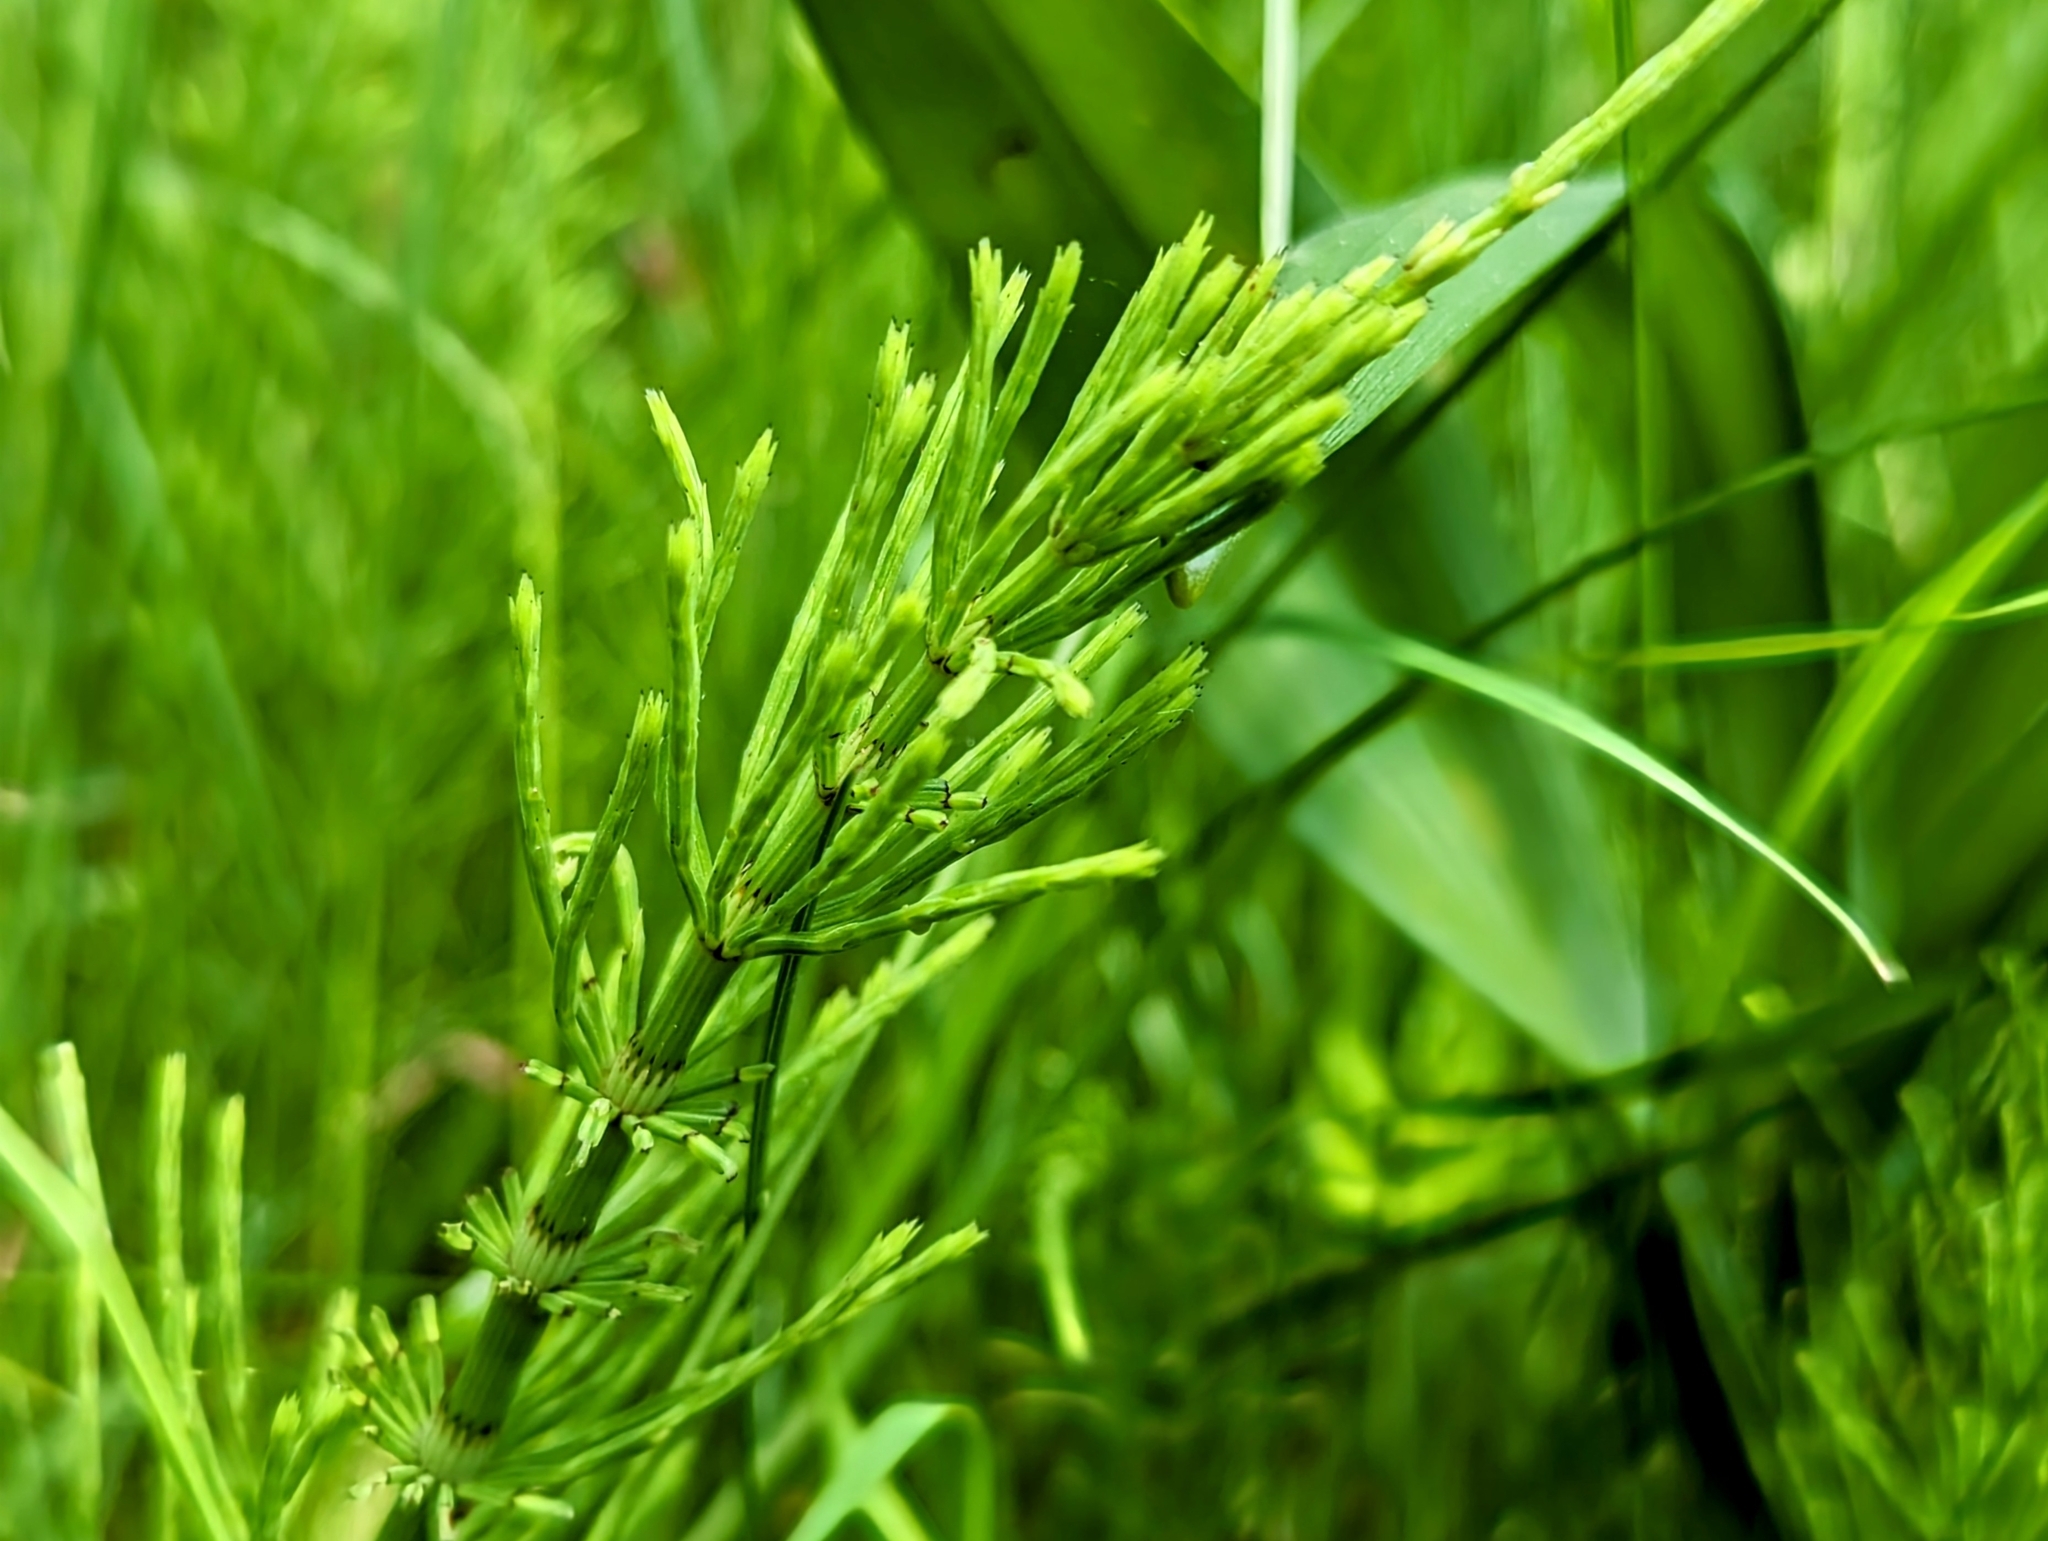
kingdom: Plantae
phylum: Tracheophyta
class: Polypodiopsida
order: Equisetales
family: Equisetaceae
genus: Equisetum
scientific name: Equisetum arvense
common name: Field horsetail
